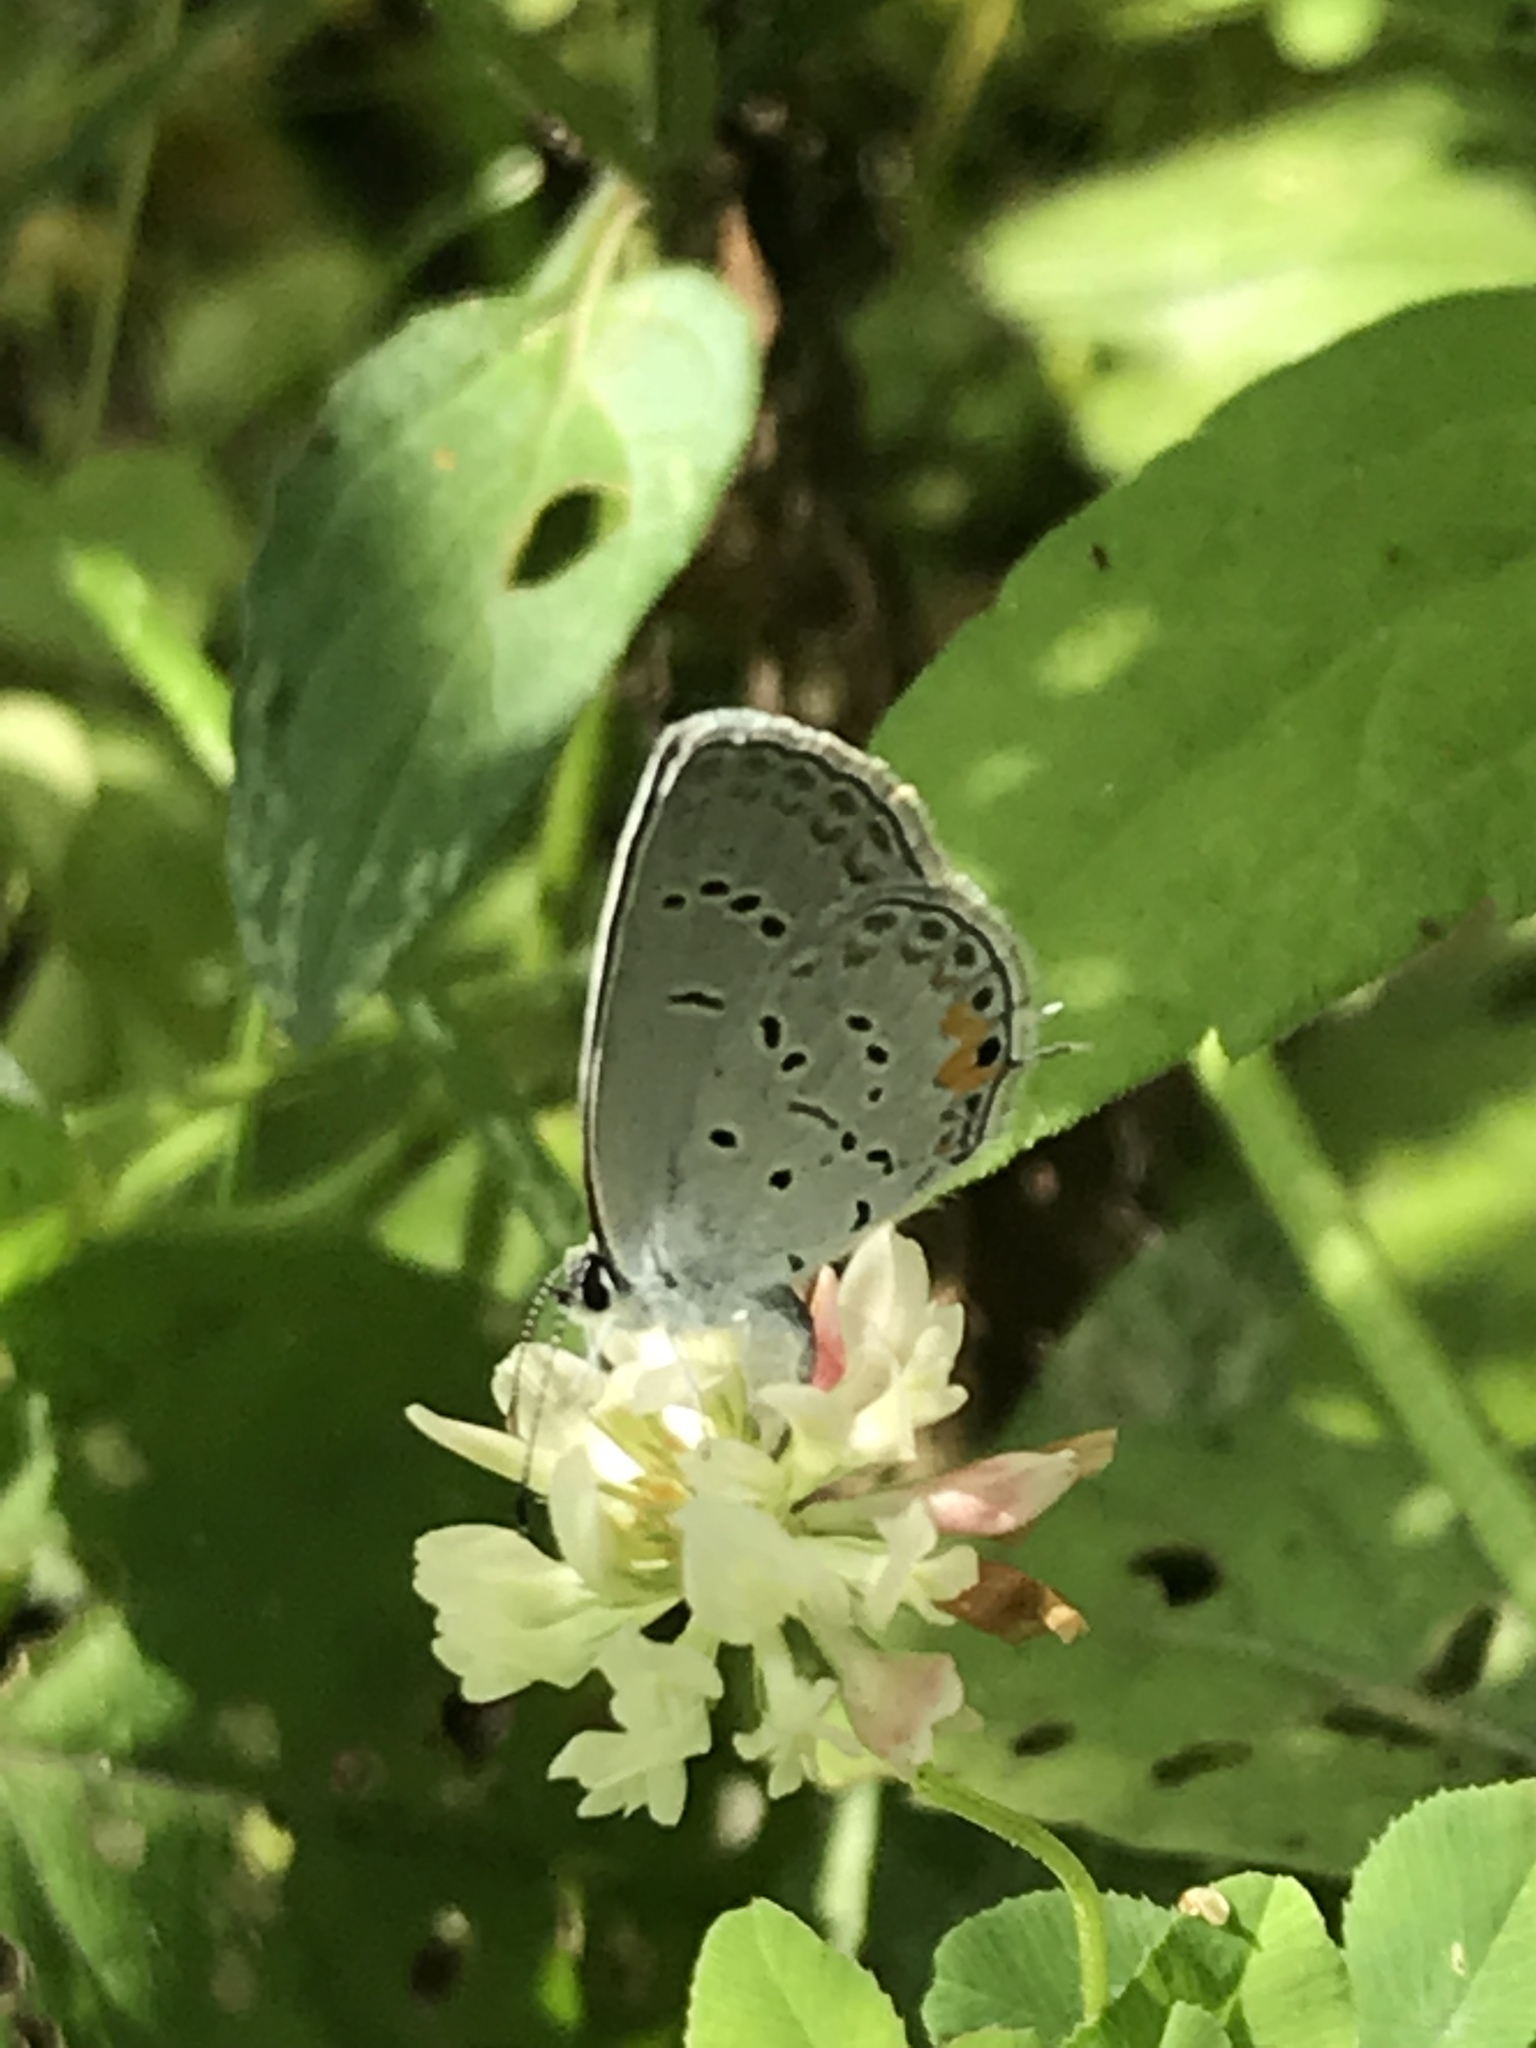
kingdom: Animalia
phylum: Arthropoda
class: Insecta
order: Lepidoptera
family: Lycaenidae
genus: Elkalyce
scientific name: Elkalyce comyntas
